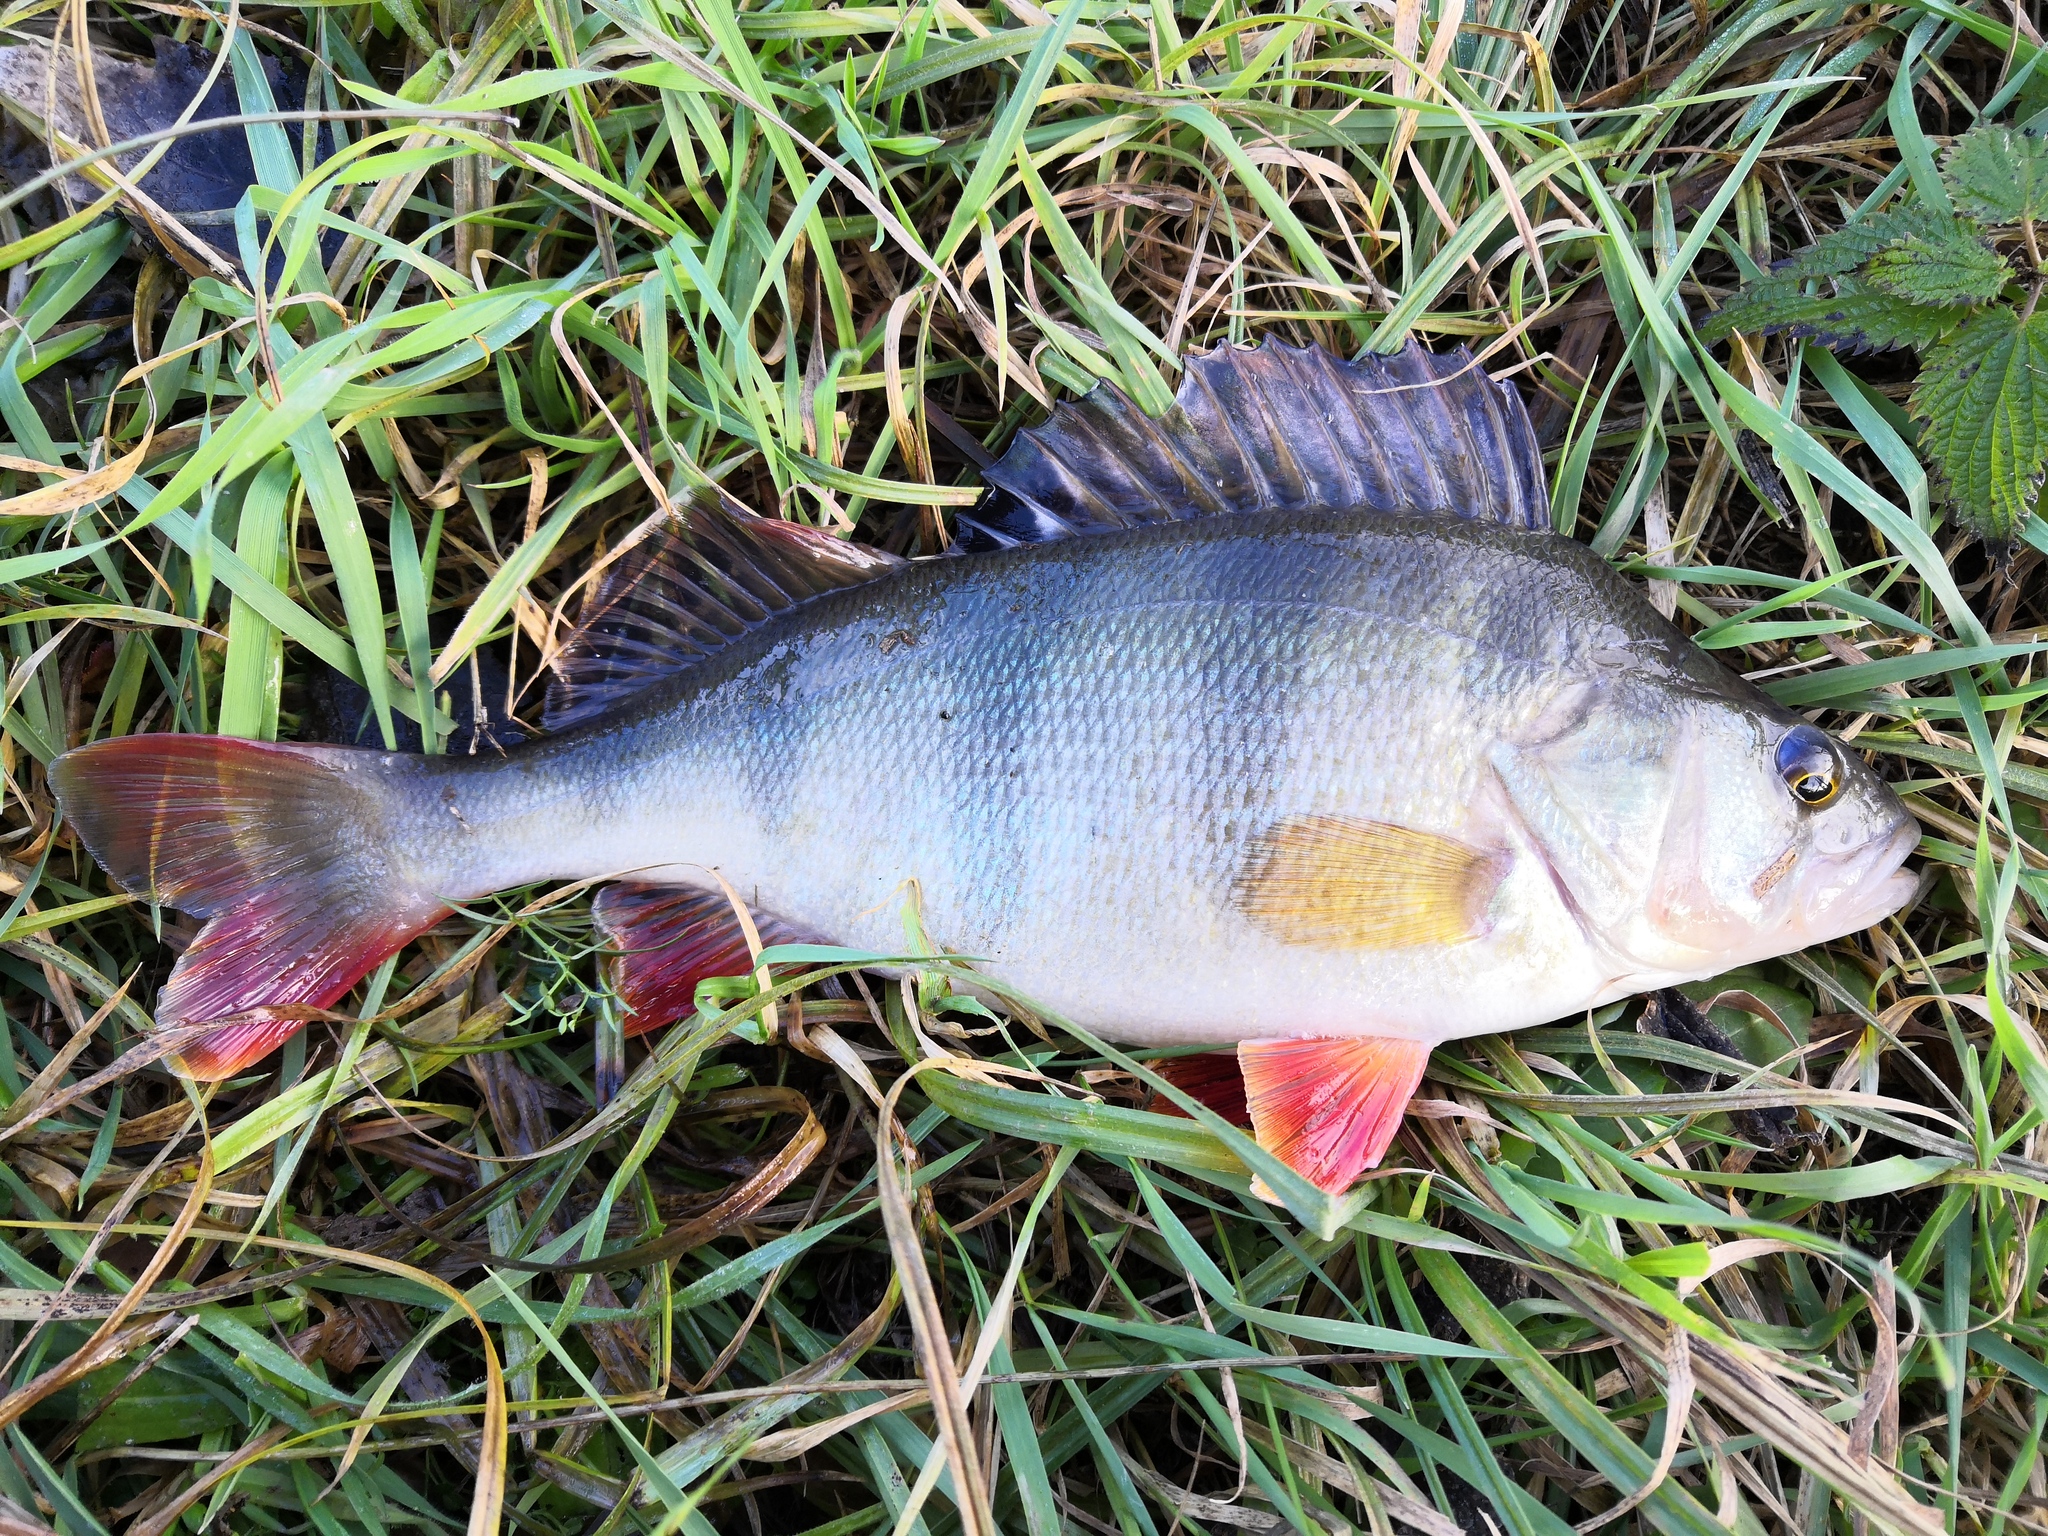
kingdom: Animalia
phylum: Chordata
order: Perciformes
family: Percidae
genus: Perca
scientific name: Perca fluviatilis
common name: Perch
